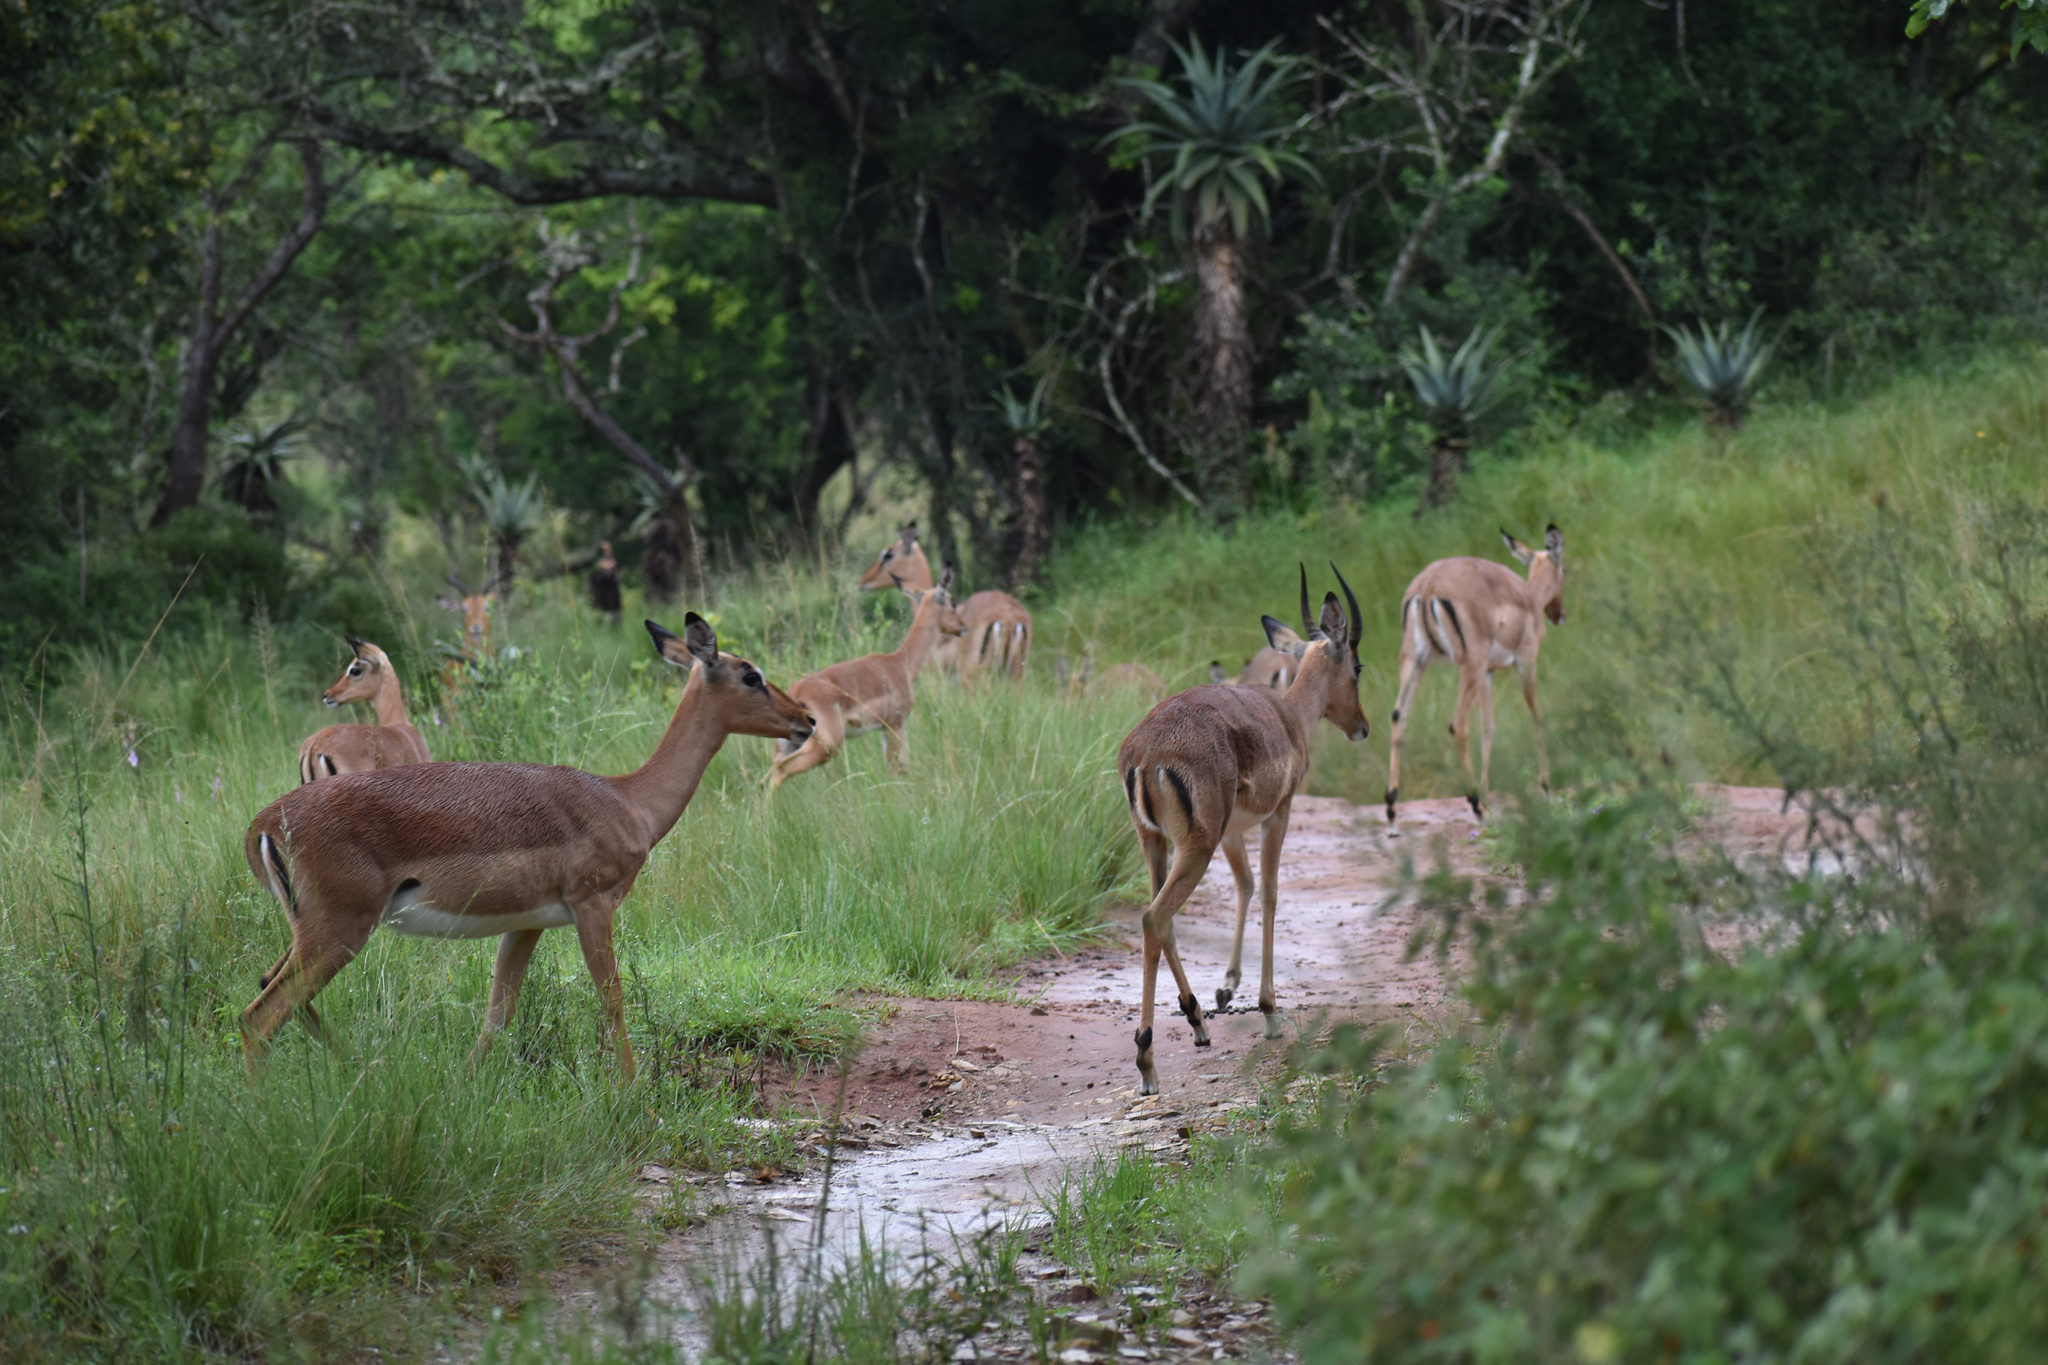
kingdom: Animalia
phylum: Chordata
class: Mammalia
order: Artiodactyla
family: Bovidae
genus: Aepyceros
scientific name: Aepyceros melampus
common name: Impala
